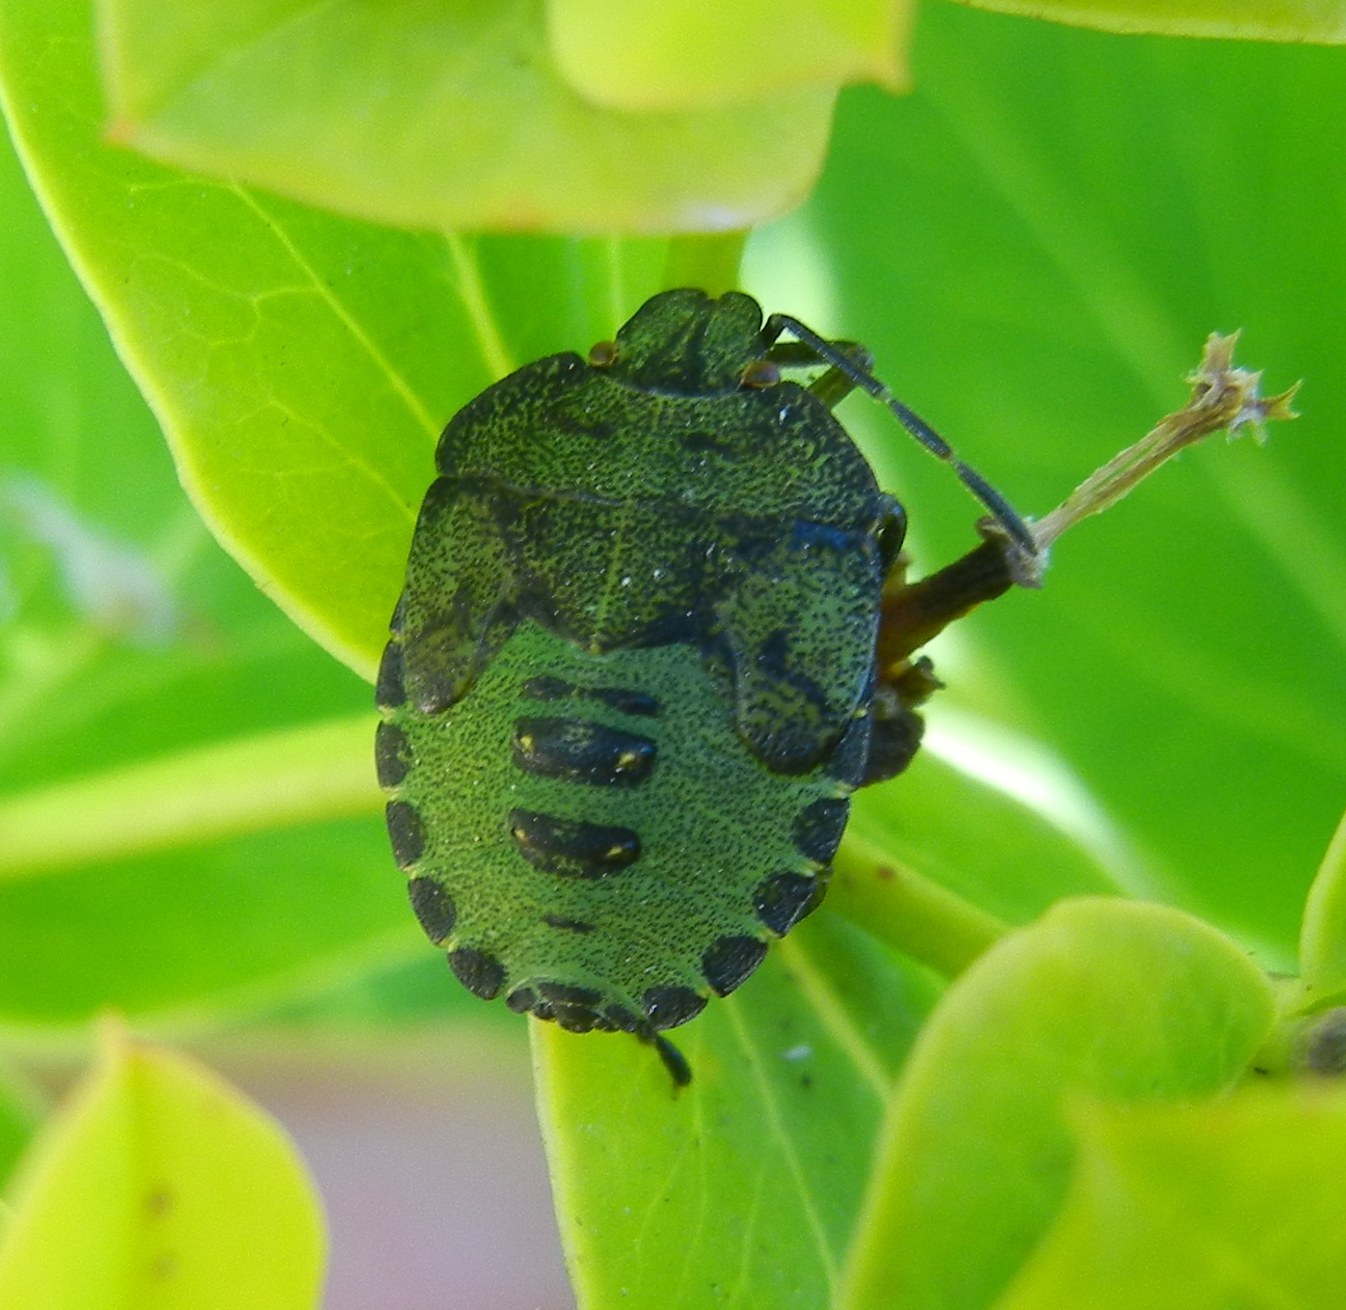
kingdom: Animalia
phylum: Arthropoda
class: Insecta
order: Hemiptera
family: Pentatomidae
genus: Palomena
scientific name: Palomena prasina
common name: Green shieldbug
